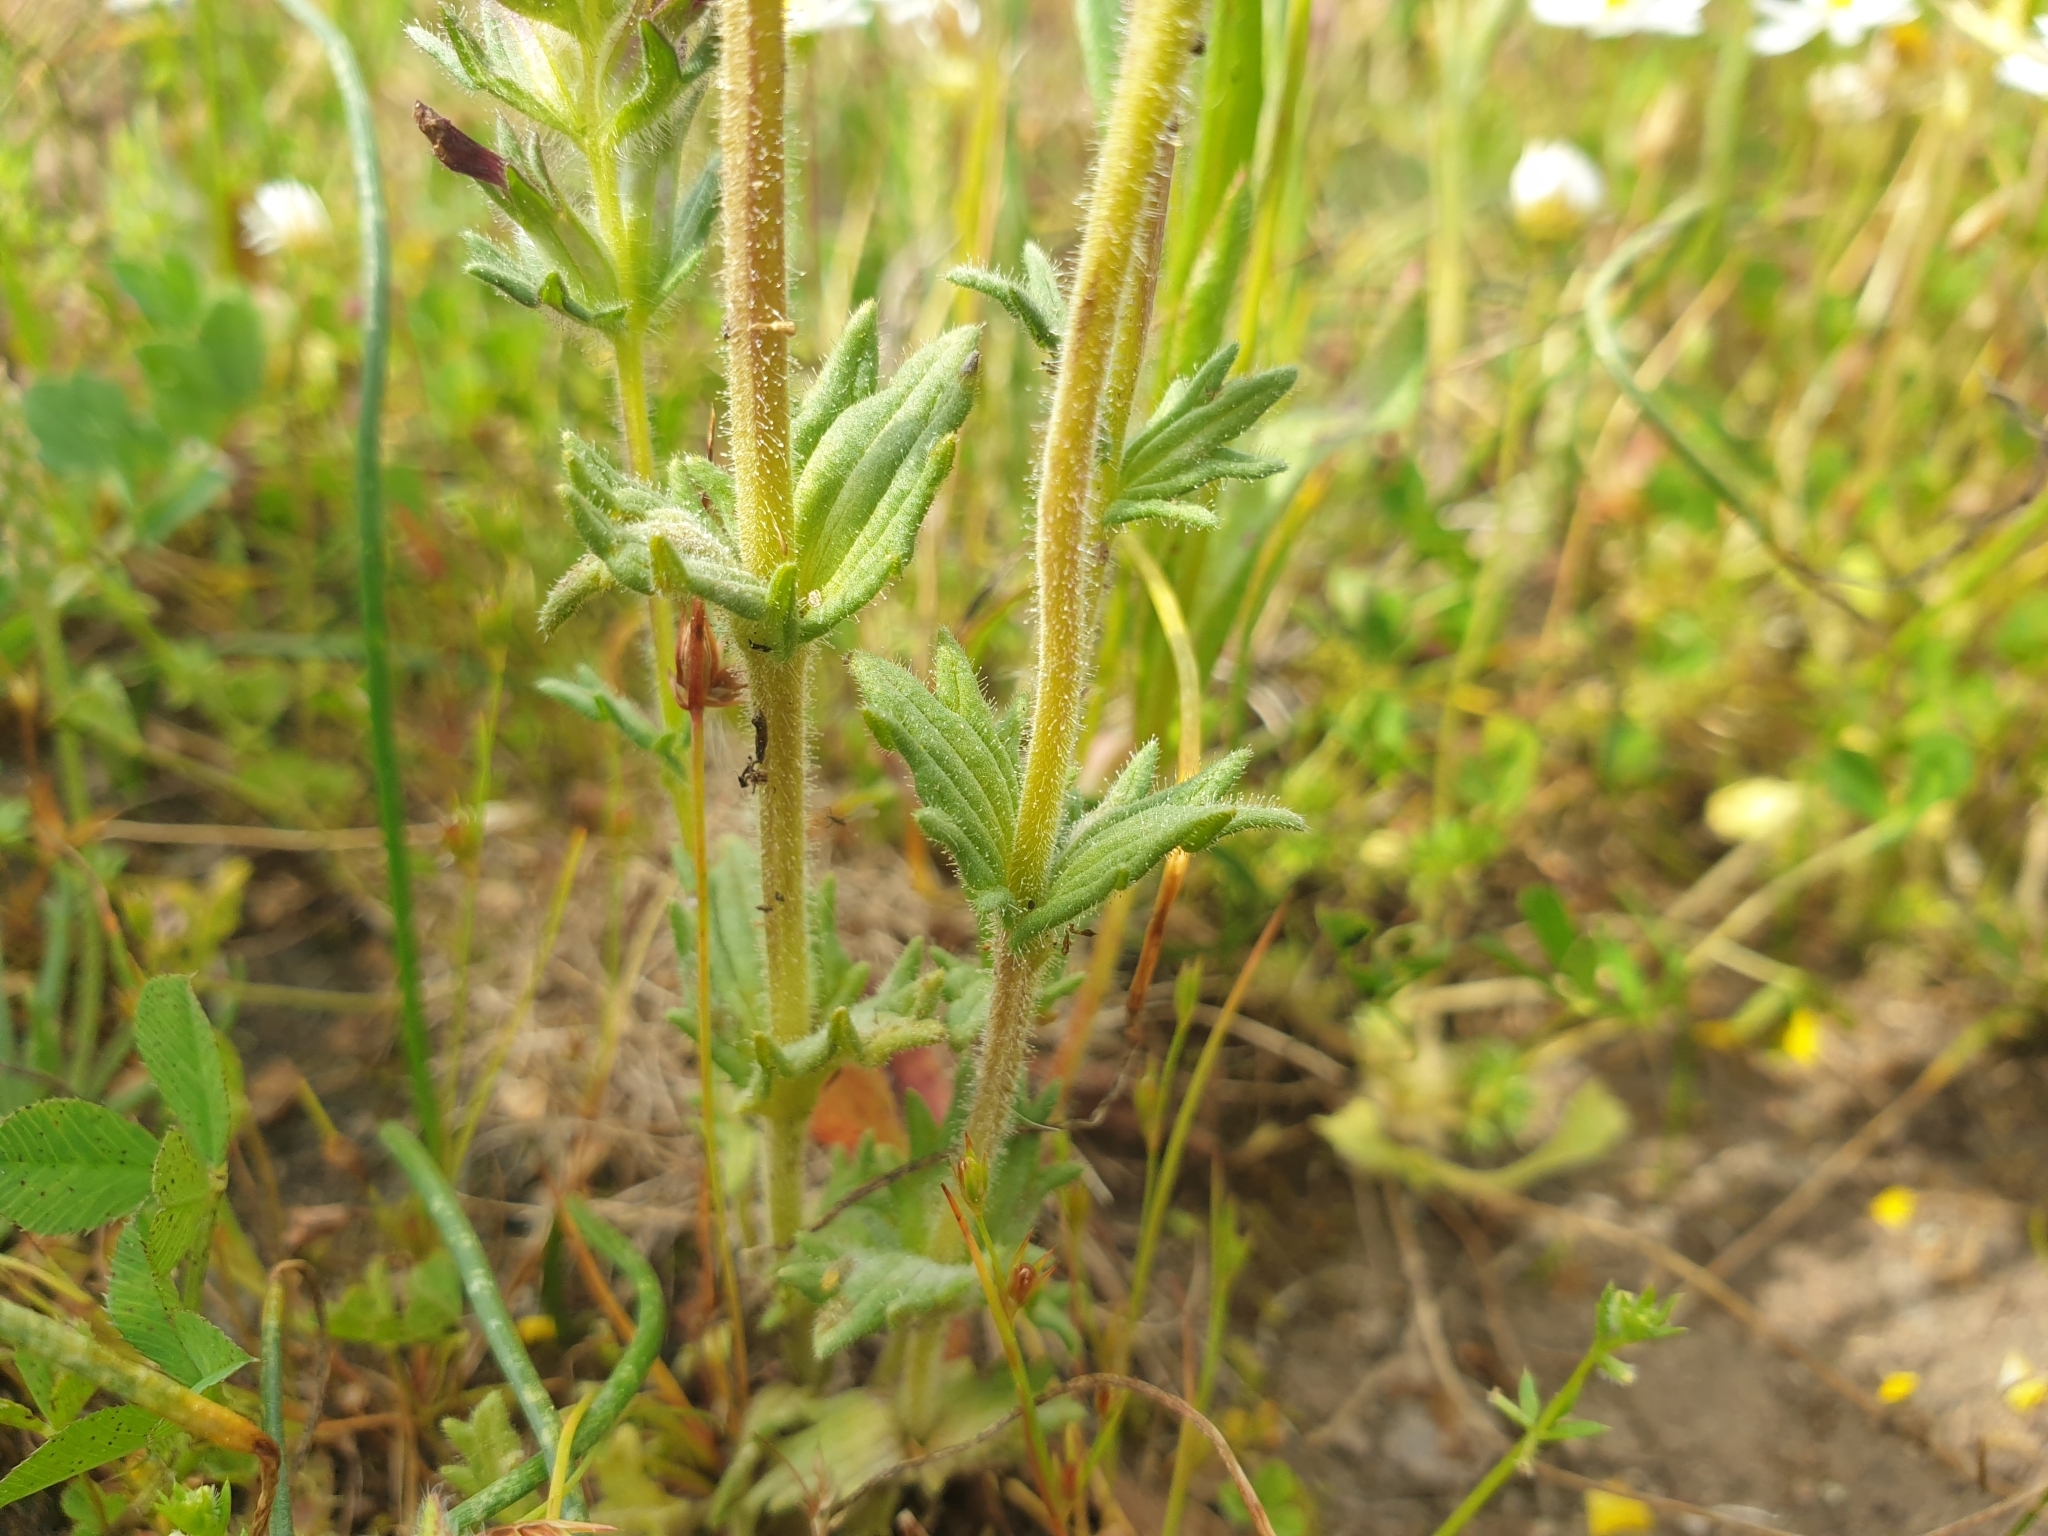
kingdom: Plantae
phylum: Tracheophyta
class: Magnoliopsida
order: Lamiales
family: Orobanchaceae
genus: Parentucellia
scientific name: Parentucellia latifolia
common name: Broadleaf glandweed
